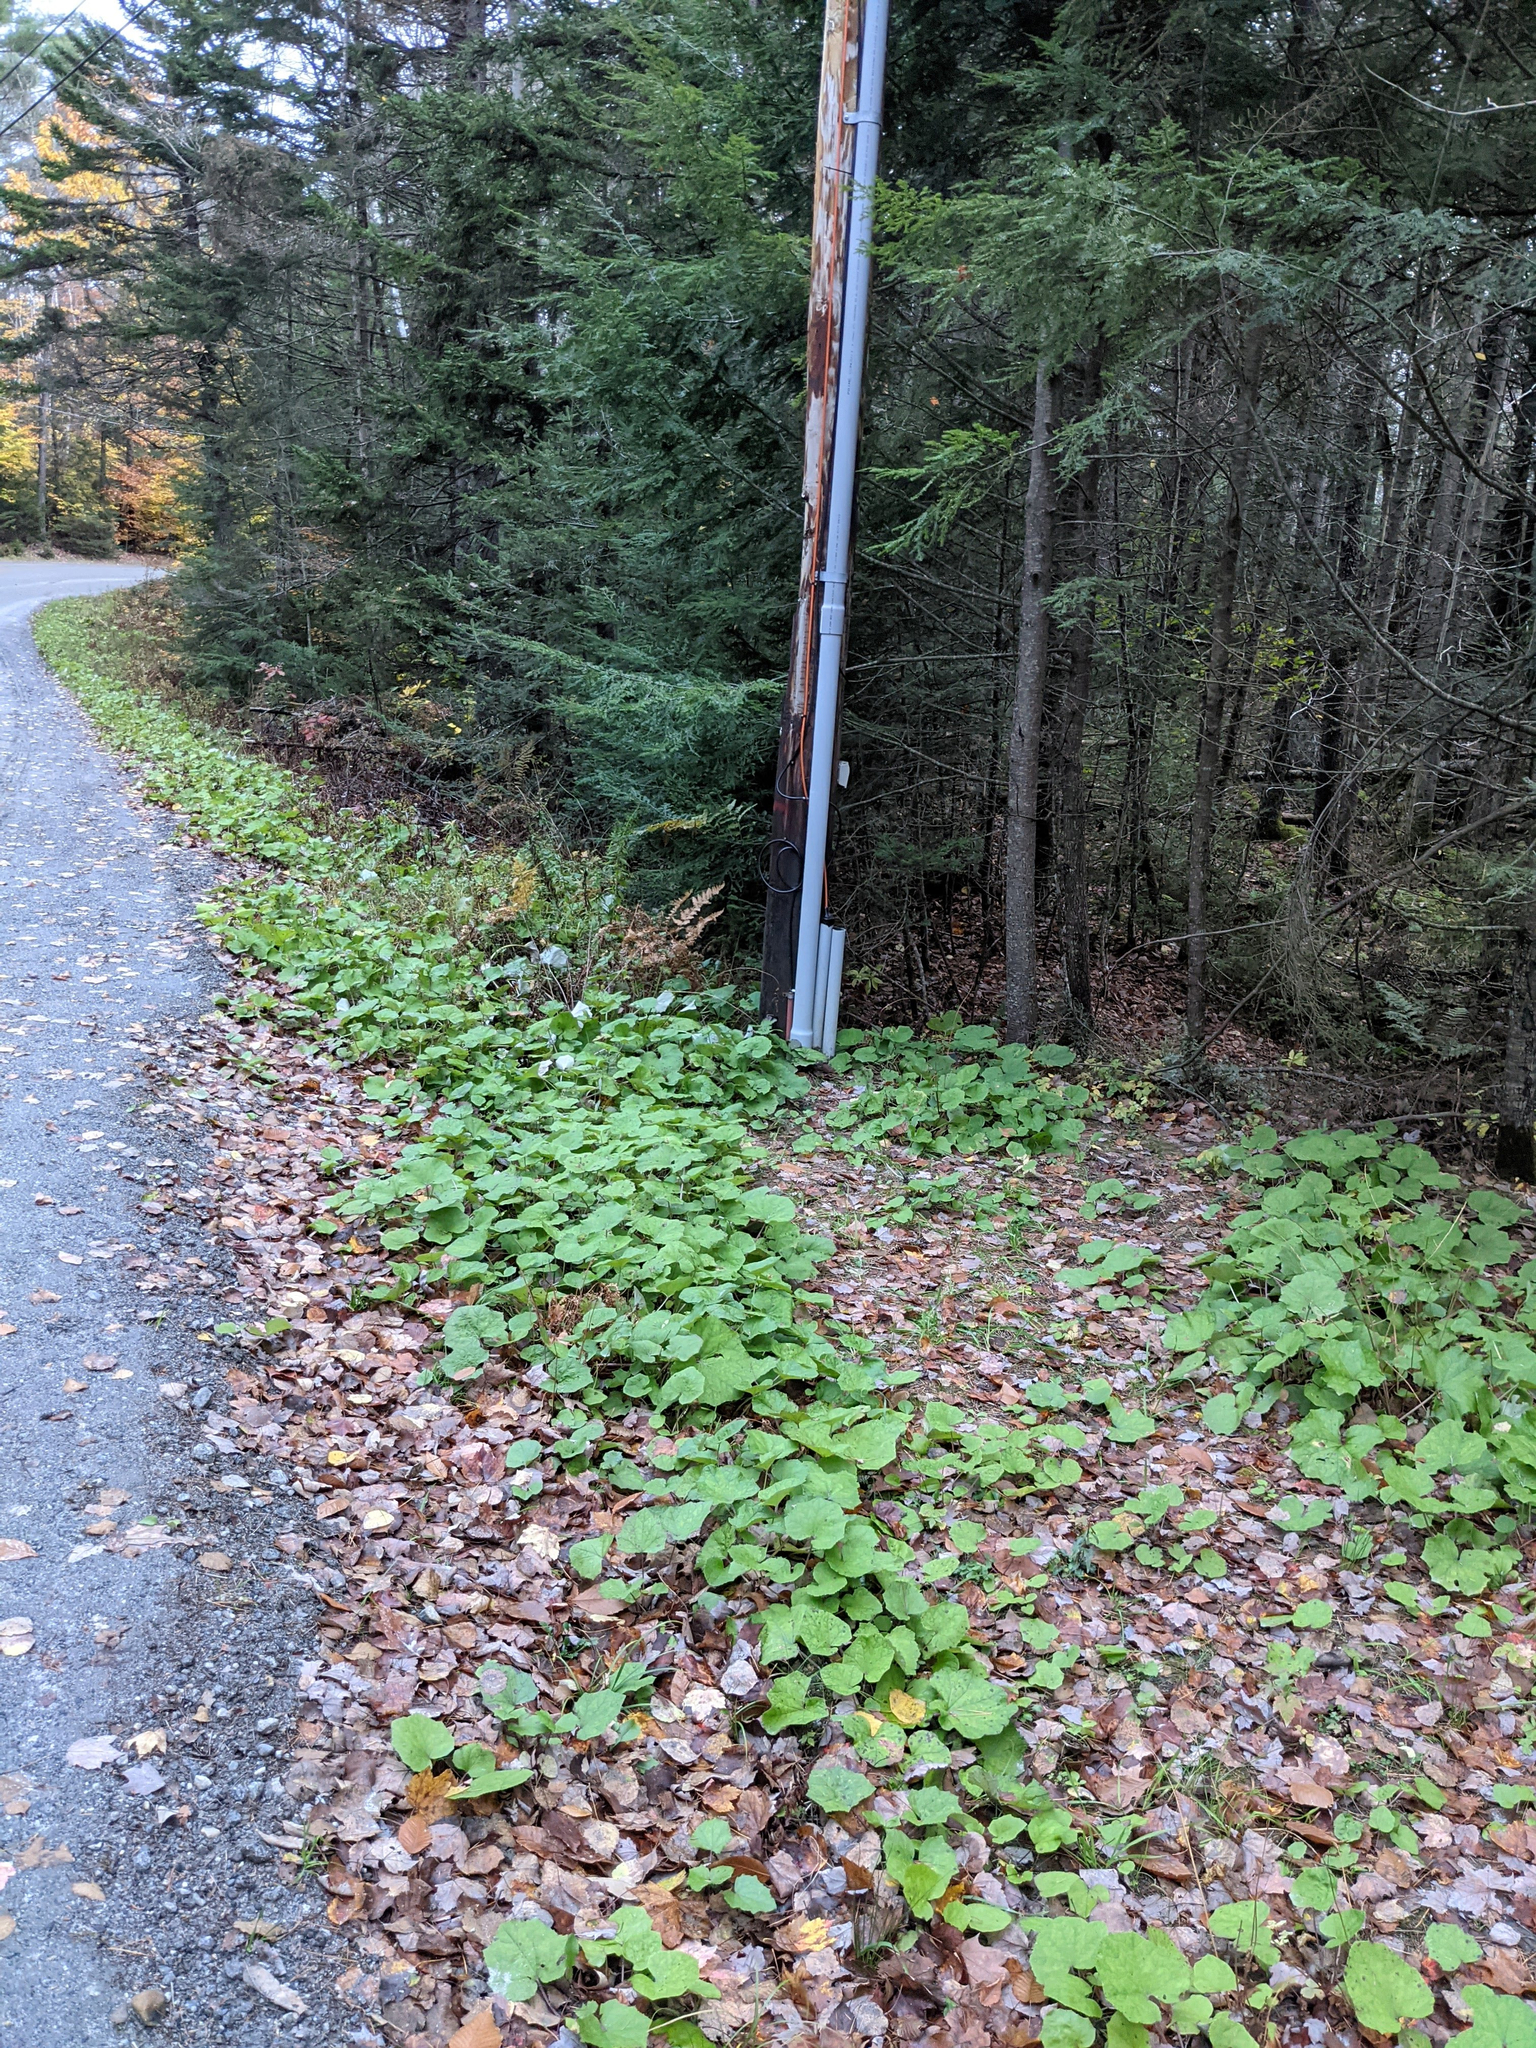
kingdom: Plantae
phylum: Tracheophyta
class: Magnoliopsida
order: Asterales
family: Asteraceae
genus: Tussilago
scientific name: Tussilago farfara
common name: Coltsfoot
